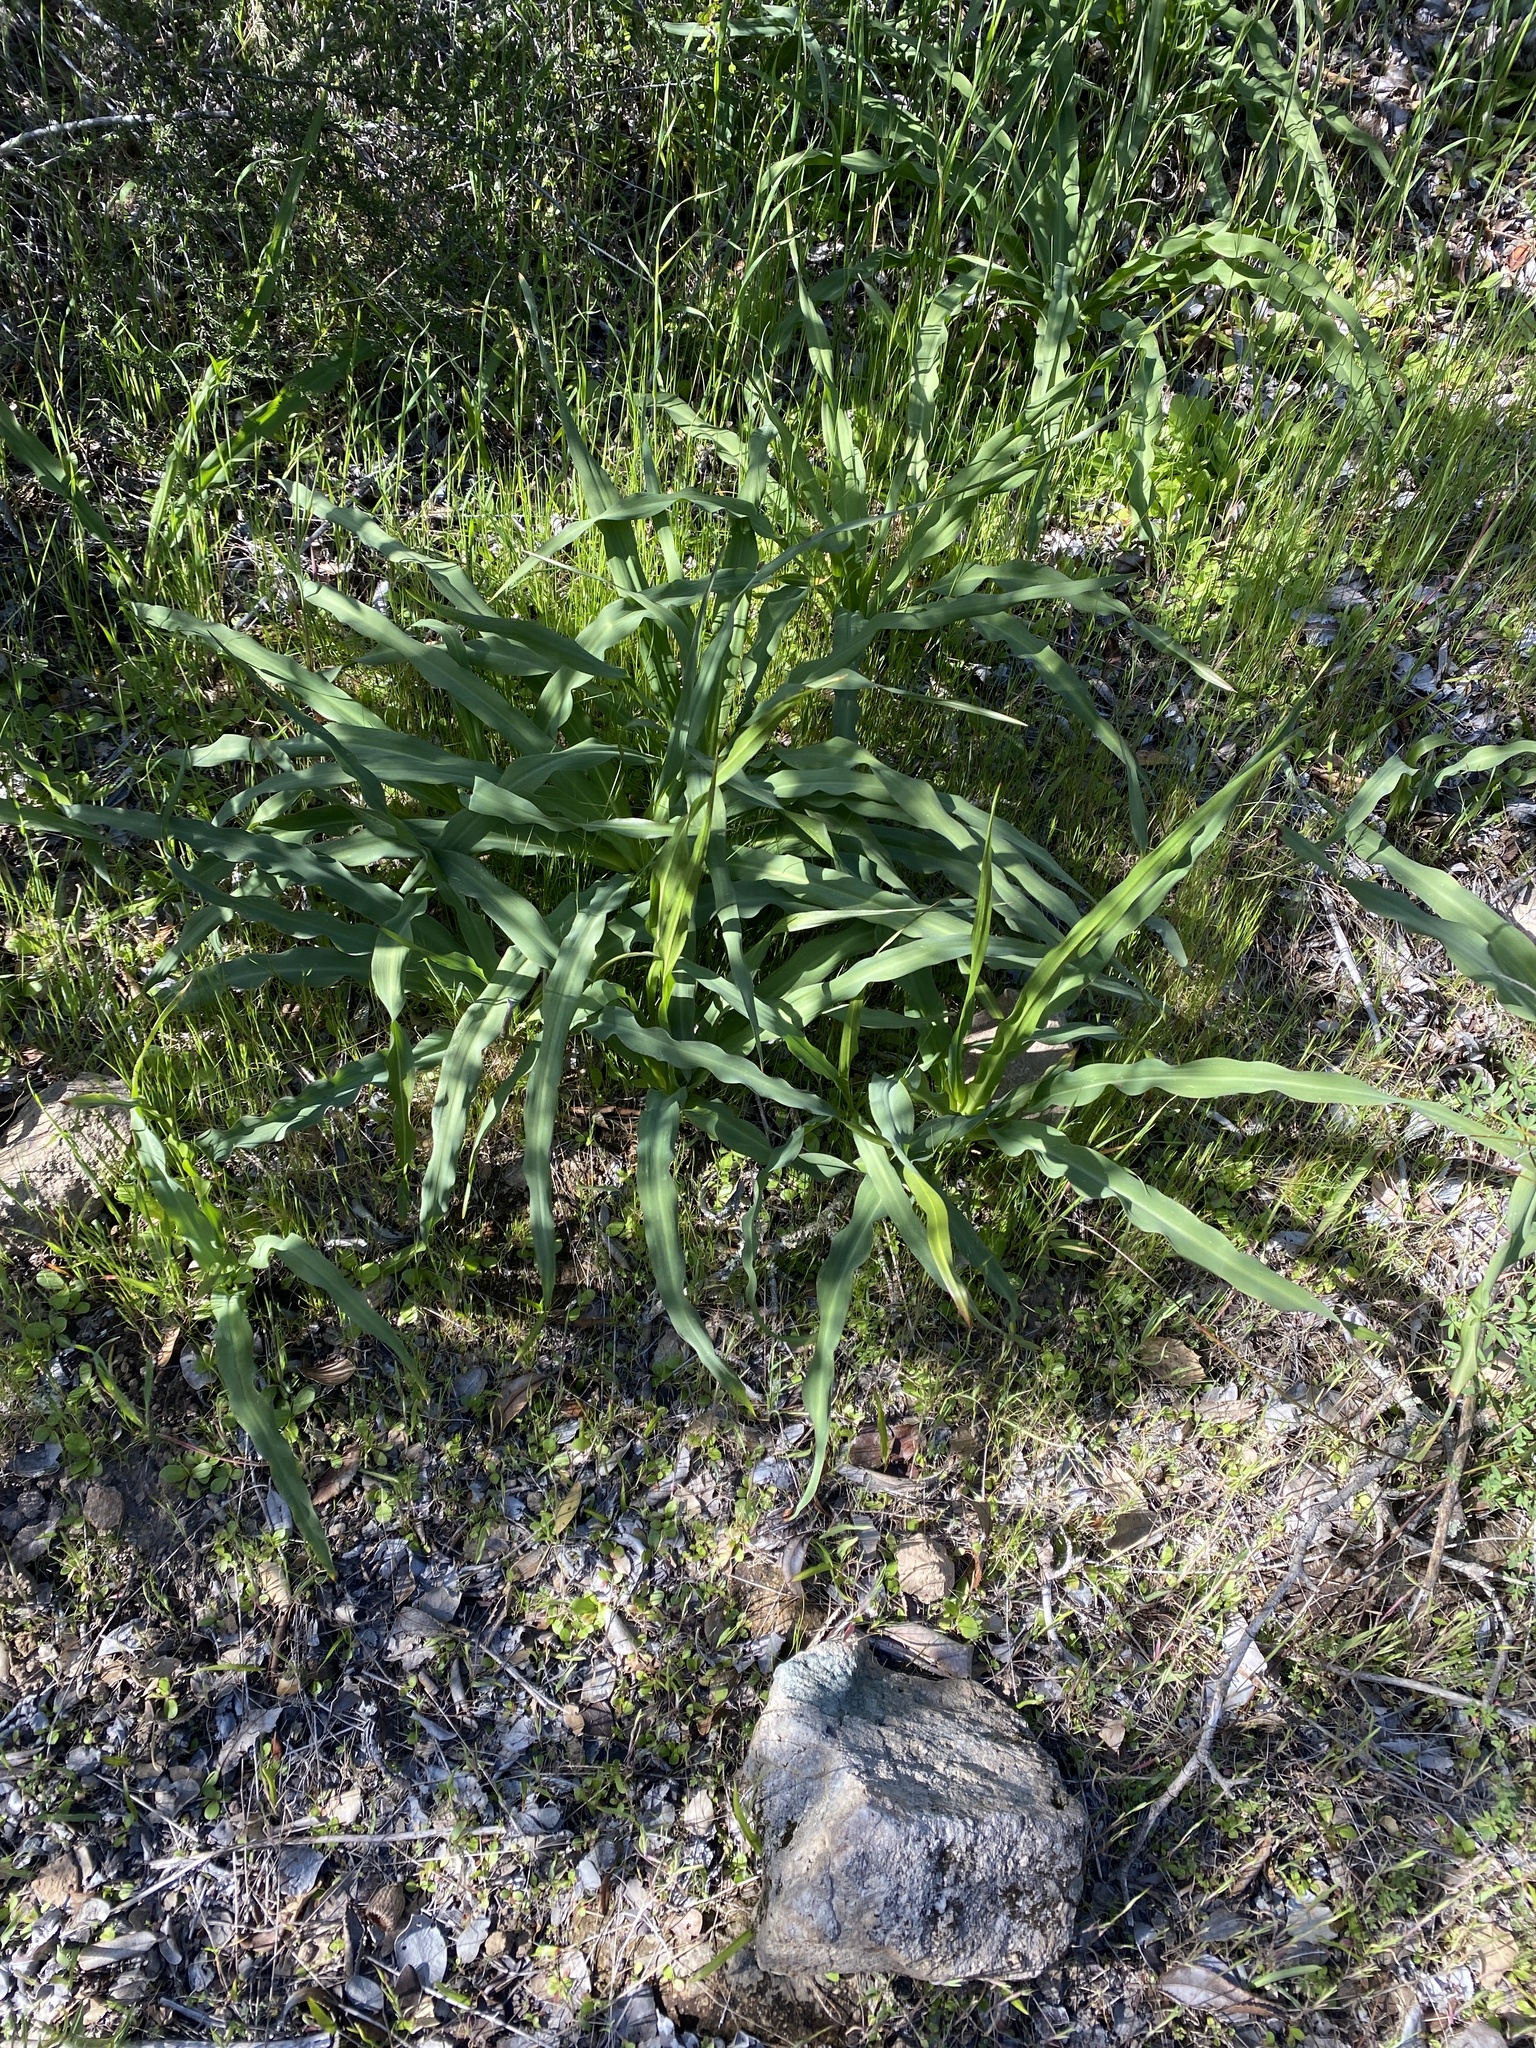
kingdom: Plantae
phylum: Tracheophyta
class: Liliopsida
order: Asparagales
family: Asparagaceae
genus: Chlorogalum
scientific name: Chlorogalum pomeridianum
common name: Amole
